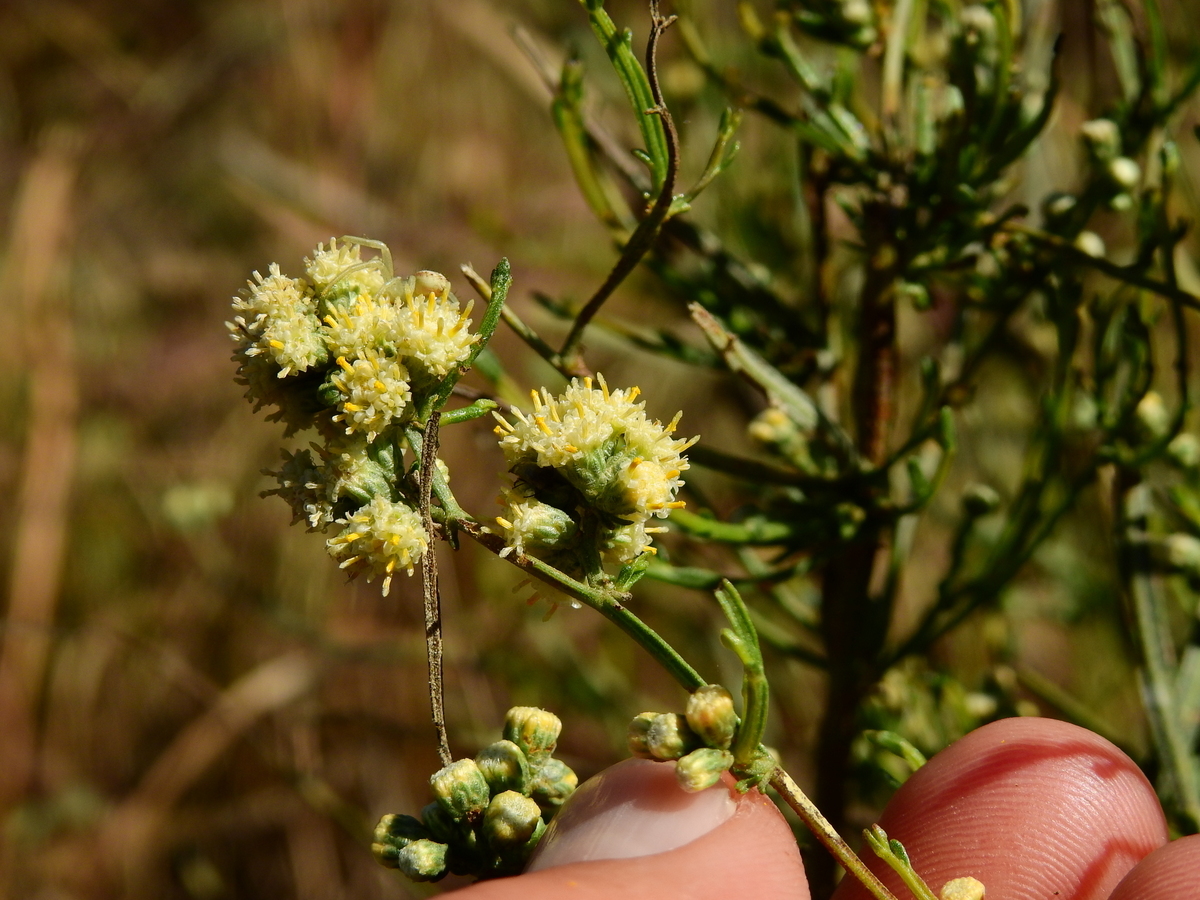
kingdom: Plantae
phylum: Tracheophyta
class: Magnoliopsida
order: Asterales
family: Asteraceae
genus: Baccharis
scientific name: Baccharis articulata
